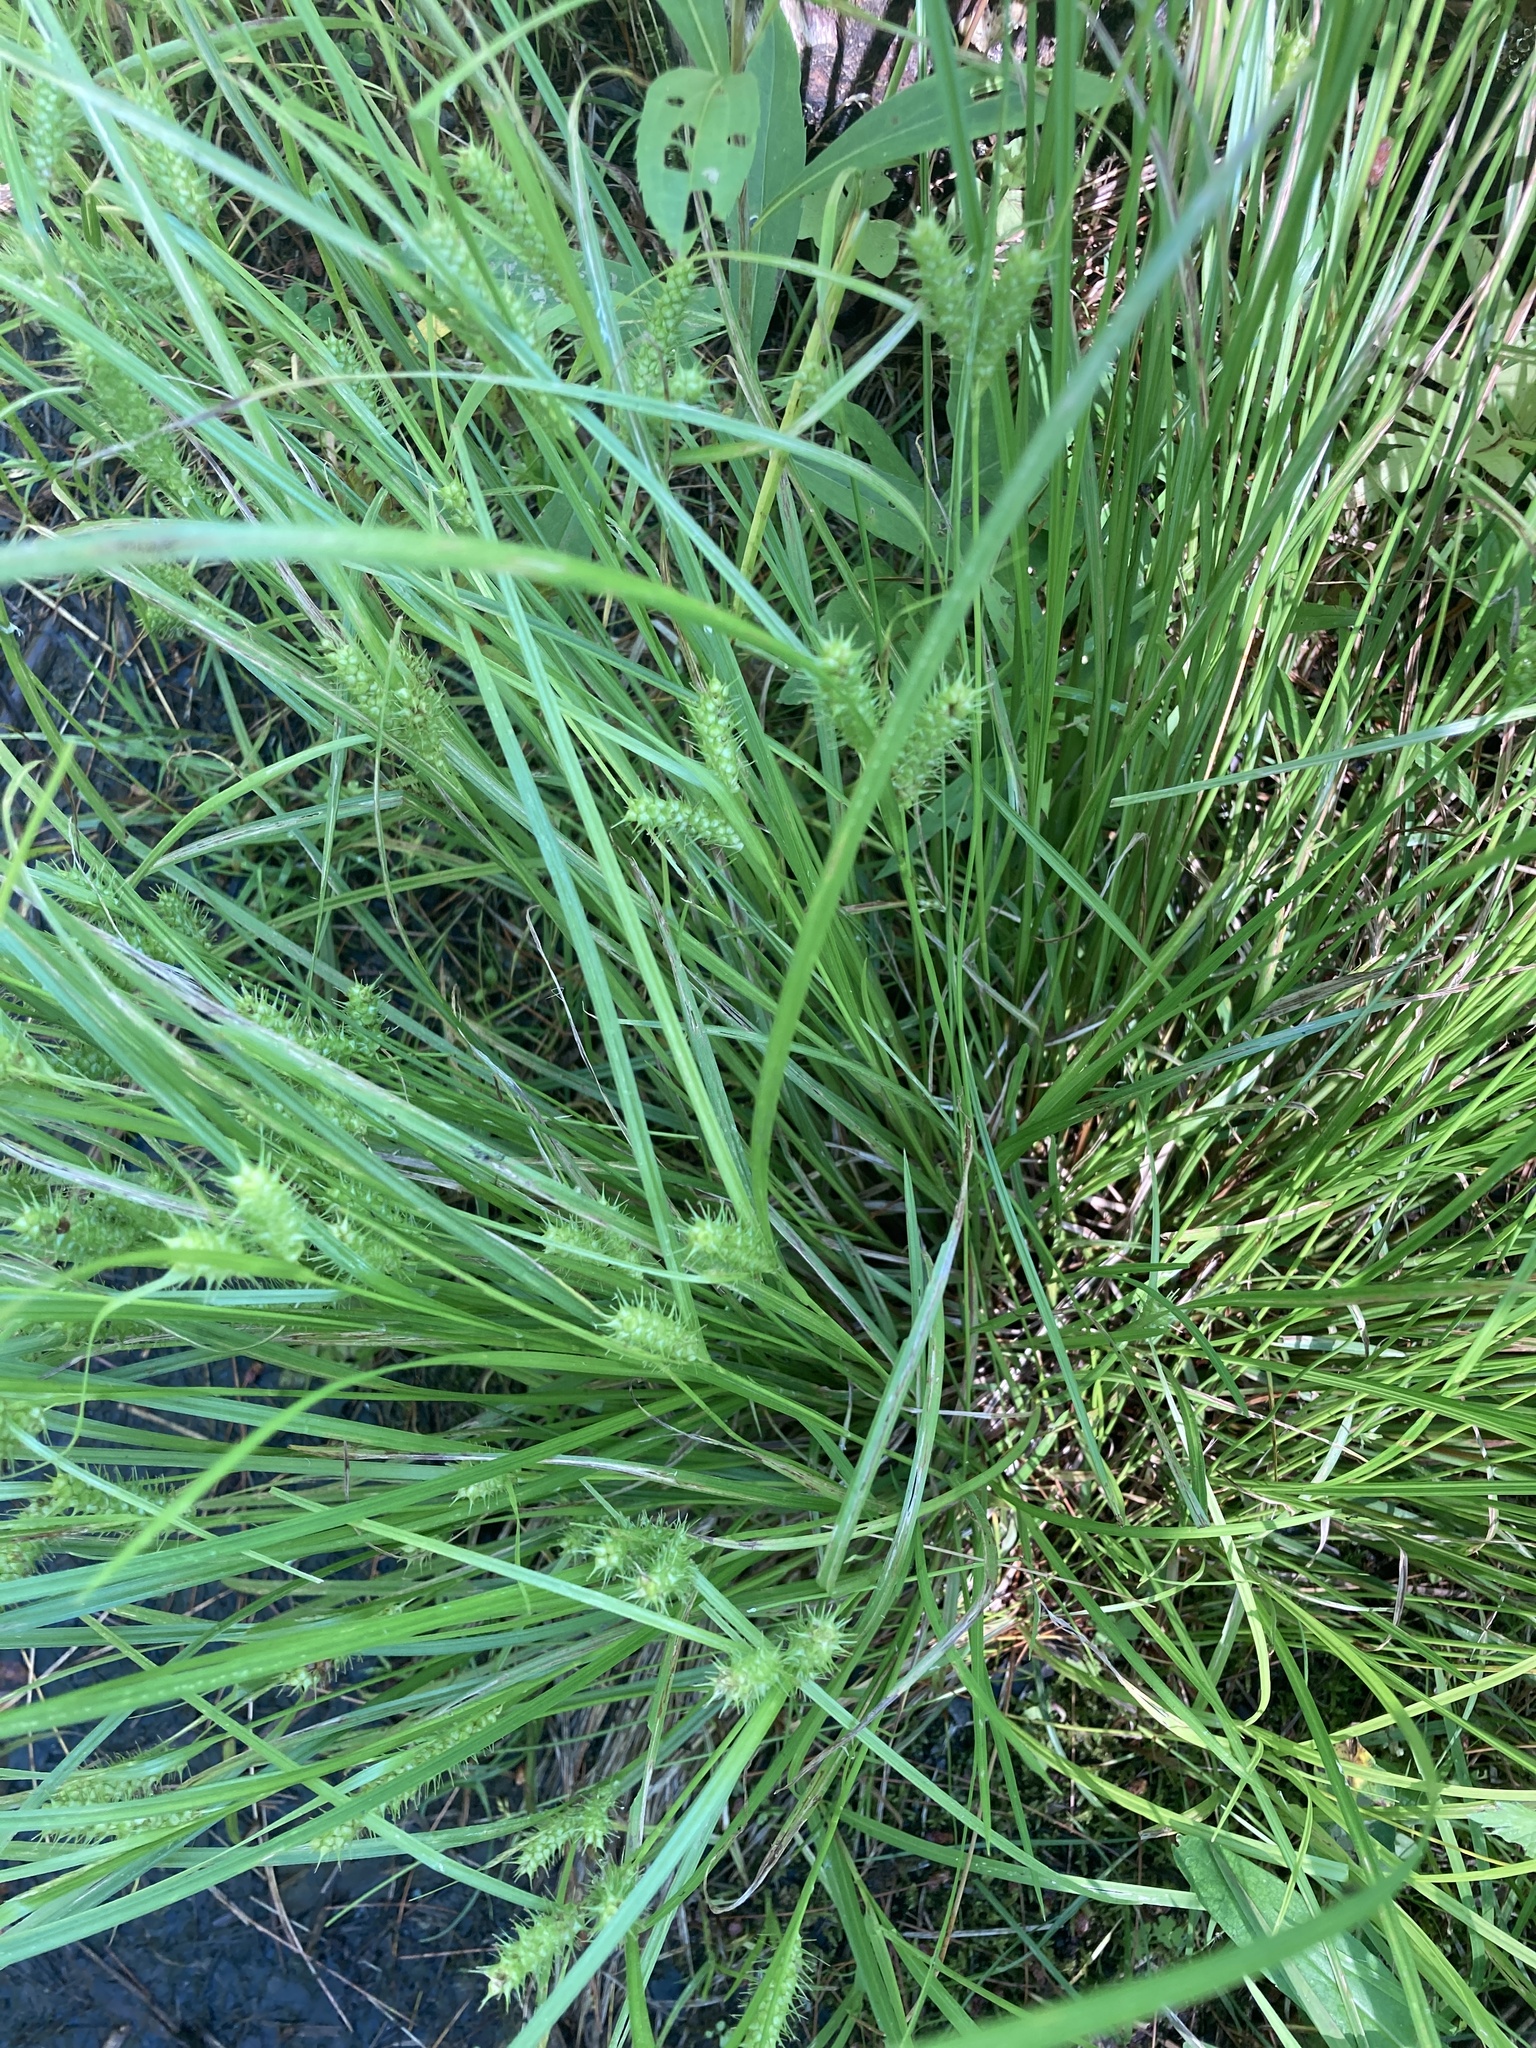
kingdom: Plantae
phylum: Tracheophyta
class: Liliopsida
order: Poales
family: Cyperaceae
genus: Carex
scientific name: Carex baileyi
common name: Bailey's sedge
